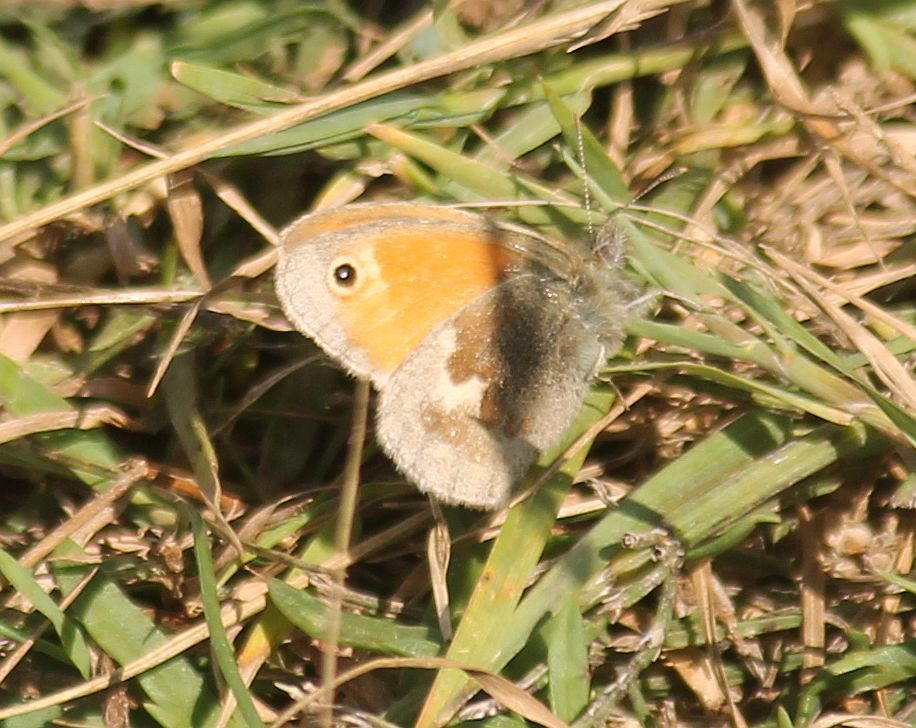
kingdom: Animalia
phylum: Arthropoda
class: Insecta
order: Lepidoptera
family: Nymphalidae
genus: Coenonympha
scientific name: Coenonympha pamphilus
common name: Small heath
